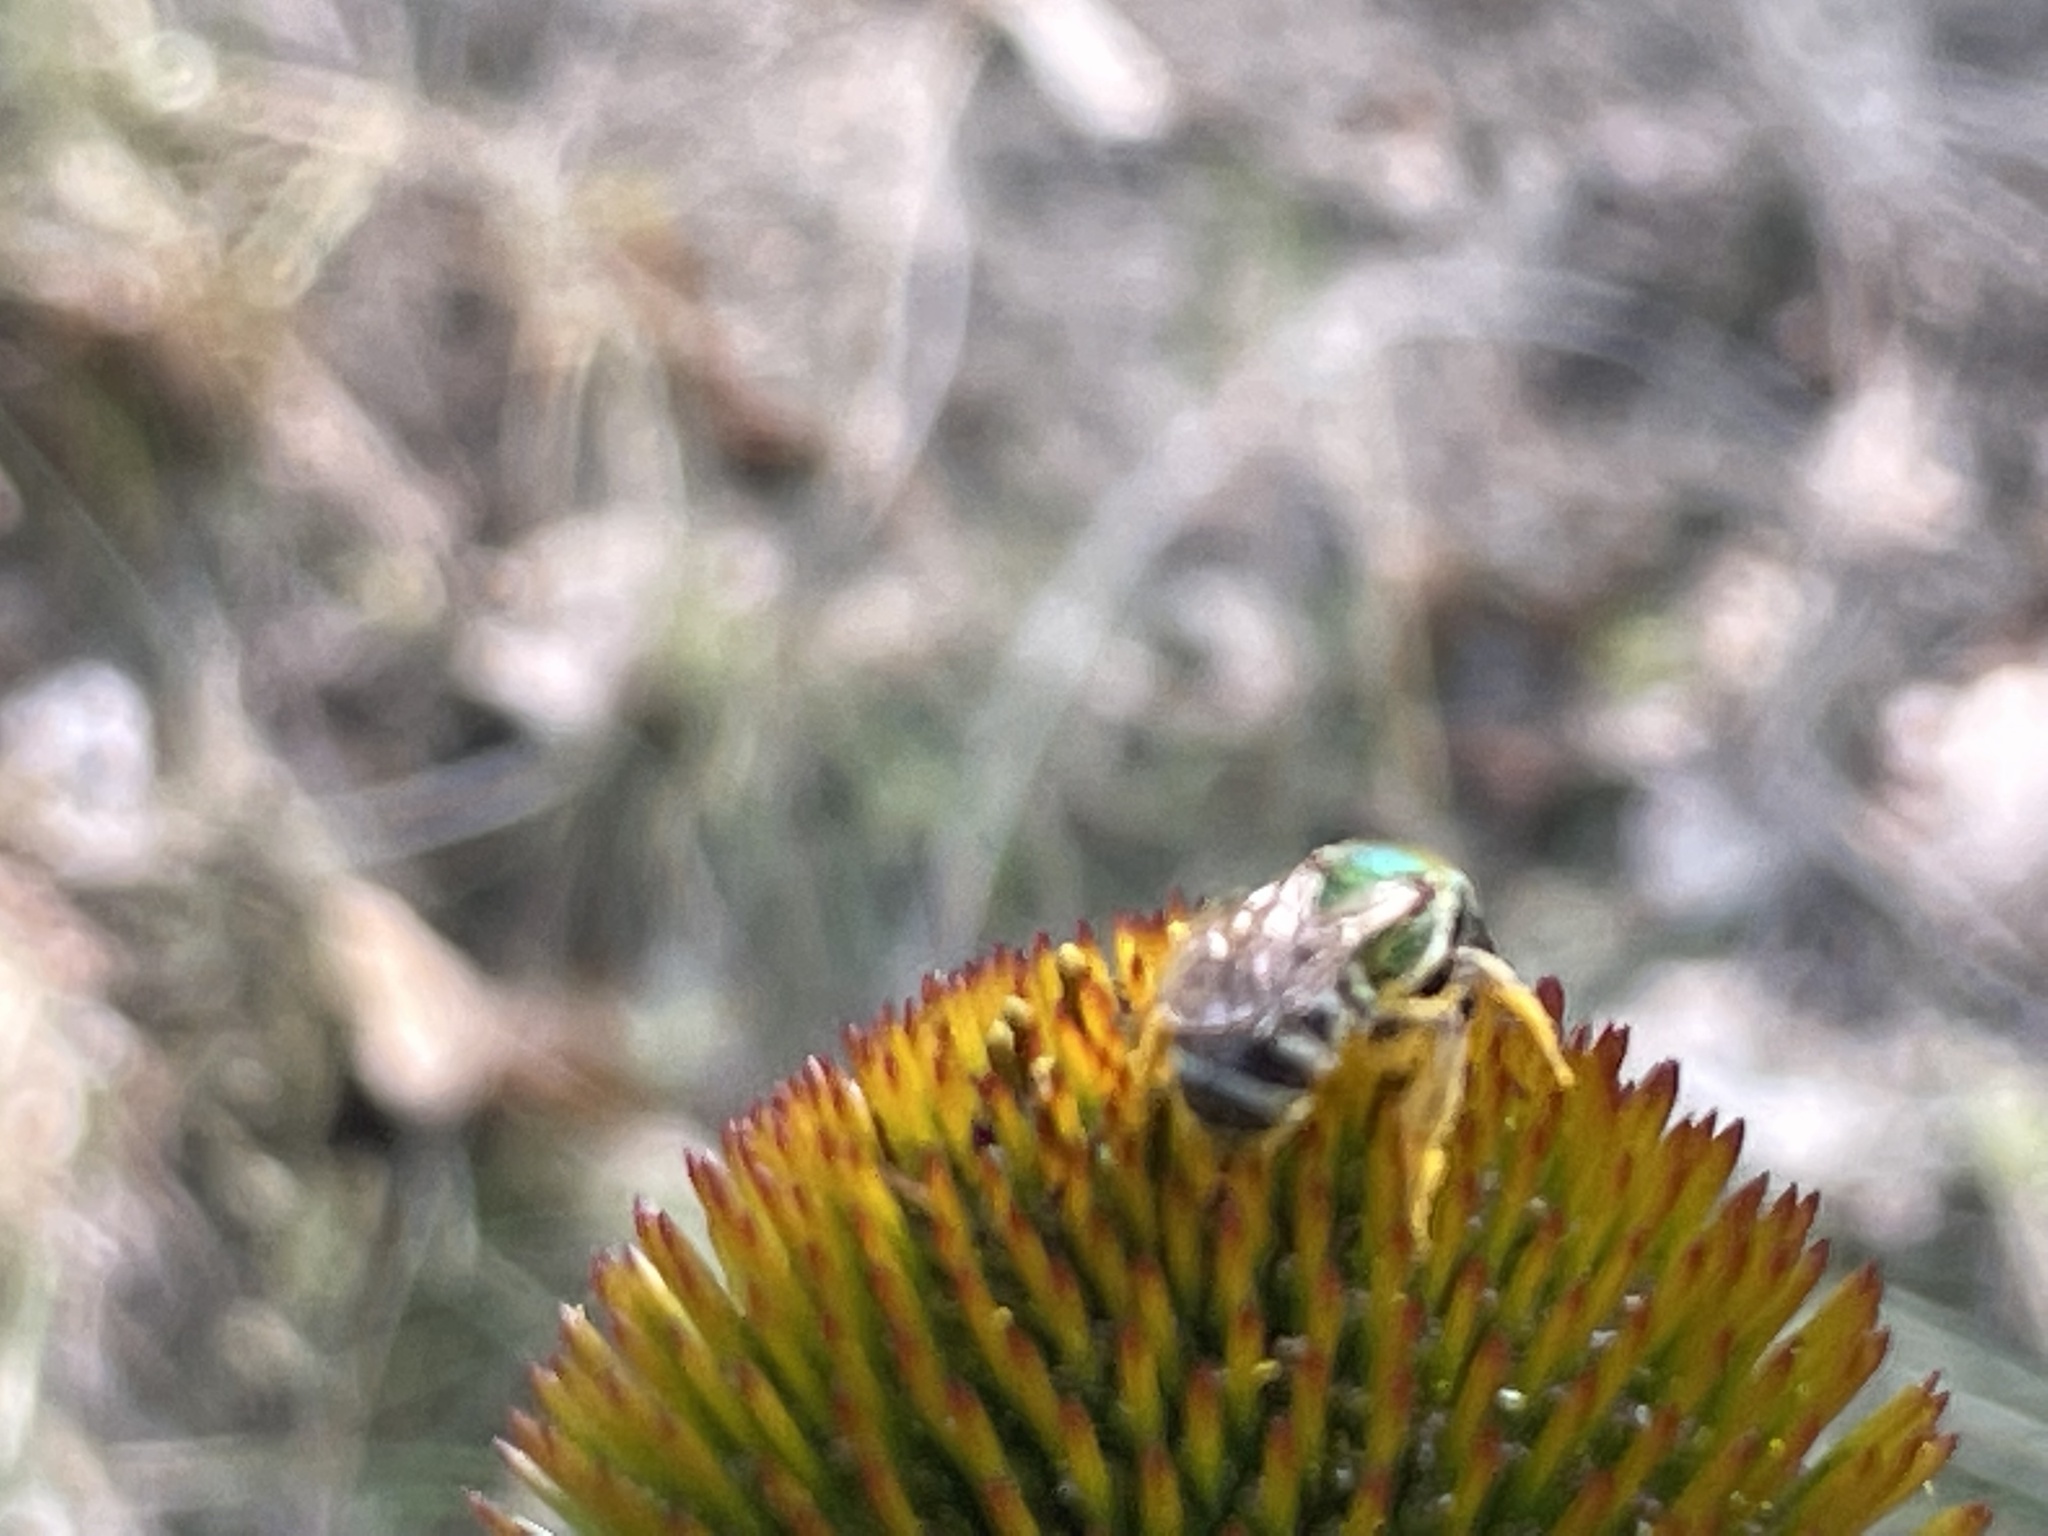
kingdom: Animalia
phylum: Arthropoda
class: Insecta
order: Hymenoptera
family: Halictidae
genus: Agapostemon
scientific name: Agapostemon virescens
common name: Bicolored striped sweat bee
